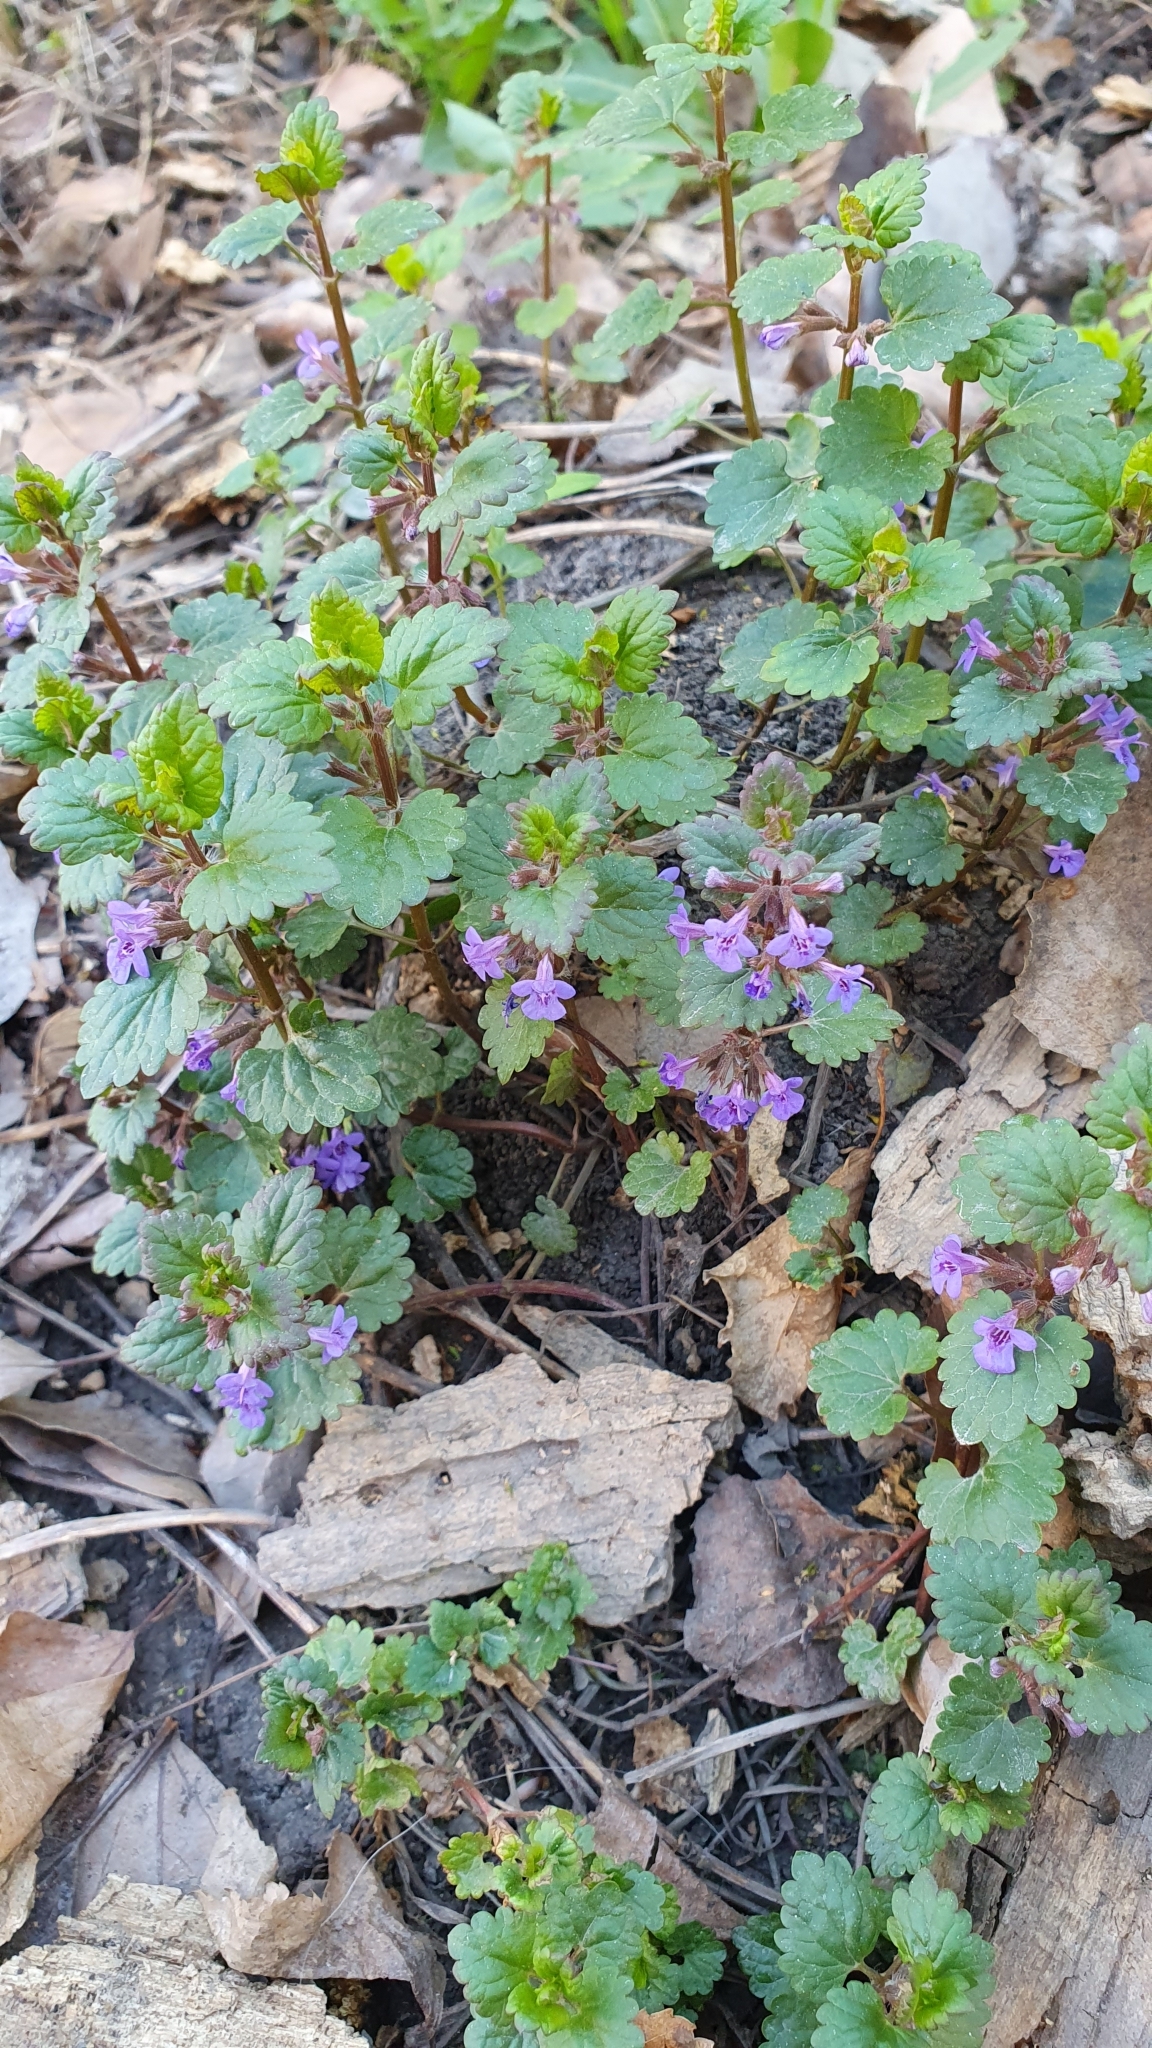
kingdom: Plantae
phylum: Tracheophyta
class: Magnoliopsida
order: Lamiales
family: Lamiaceae
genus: Glechoma
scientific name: Glechoma hederacea
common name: Ground ivy
